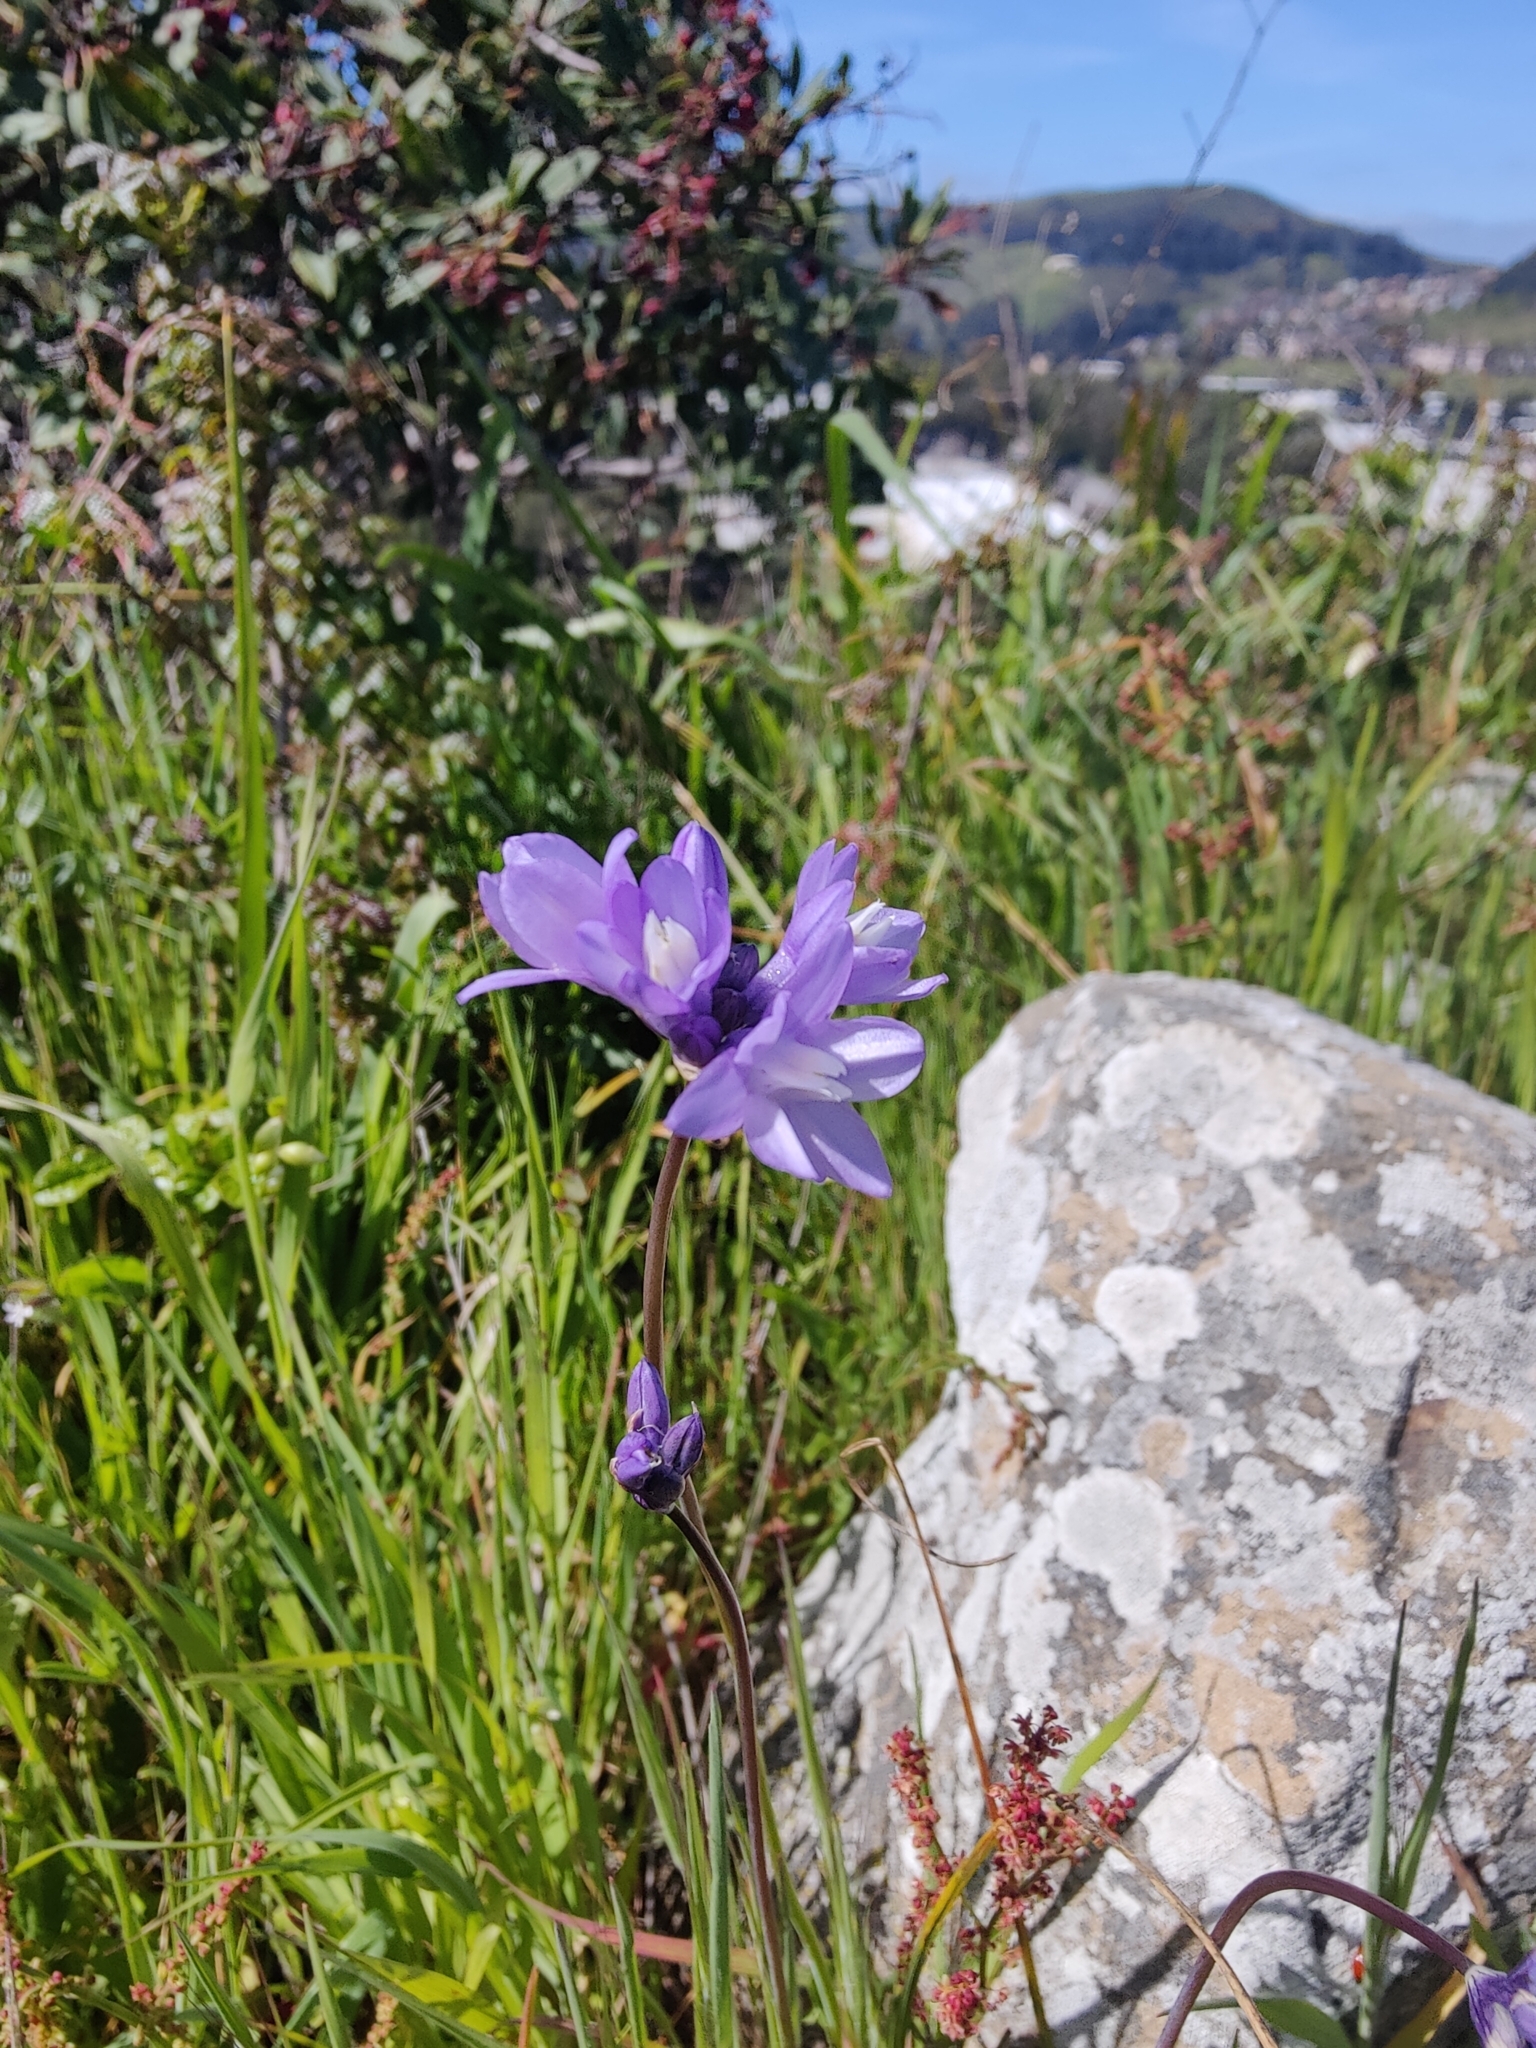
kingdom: Plantae
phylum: Tracheophyta
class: Liliopsida
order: Asparagales
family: Asparagaceae
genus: Dipterostemon
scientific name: Dipterostemon capitatus
